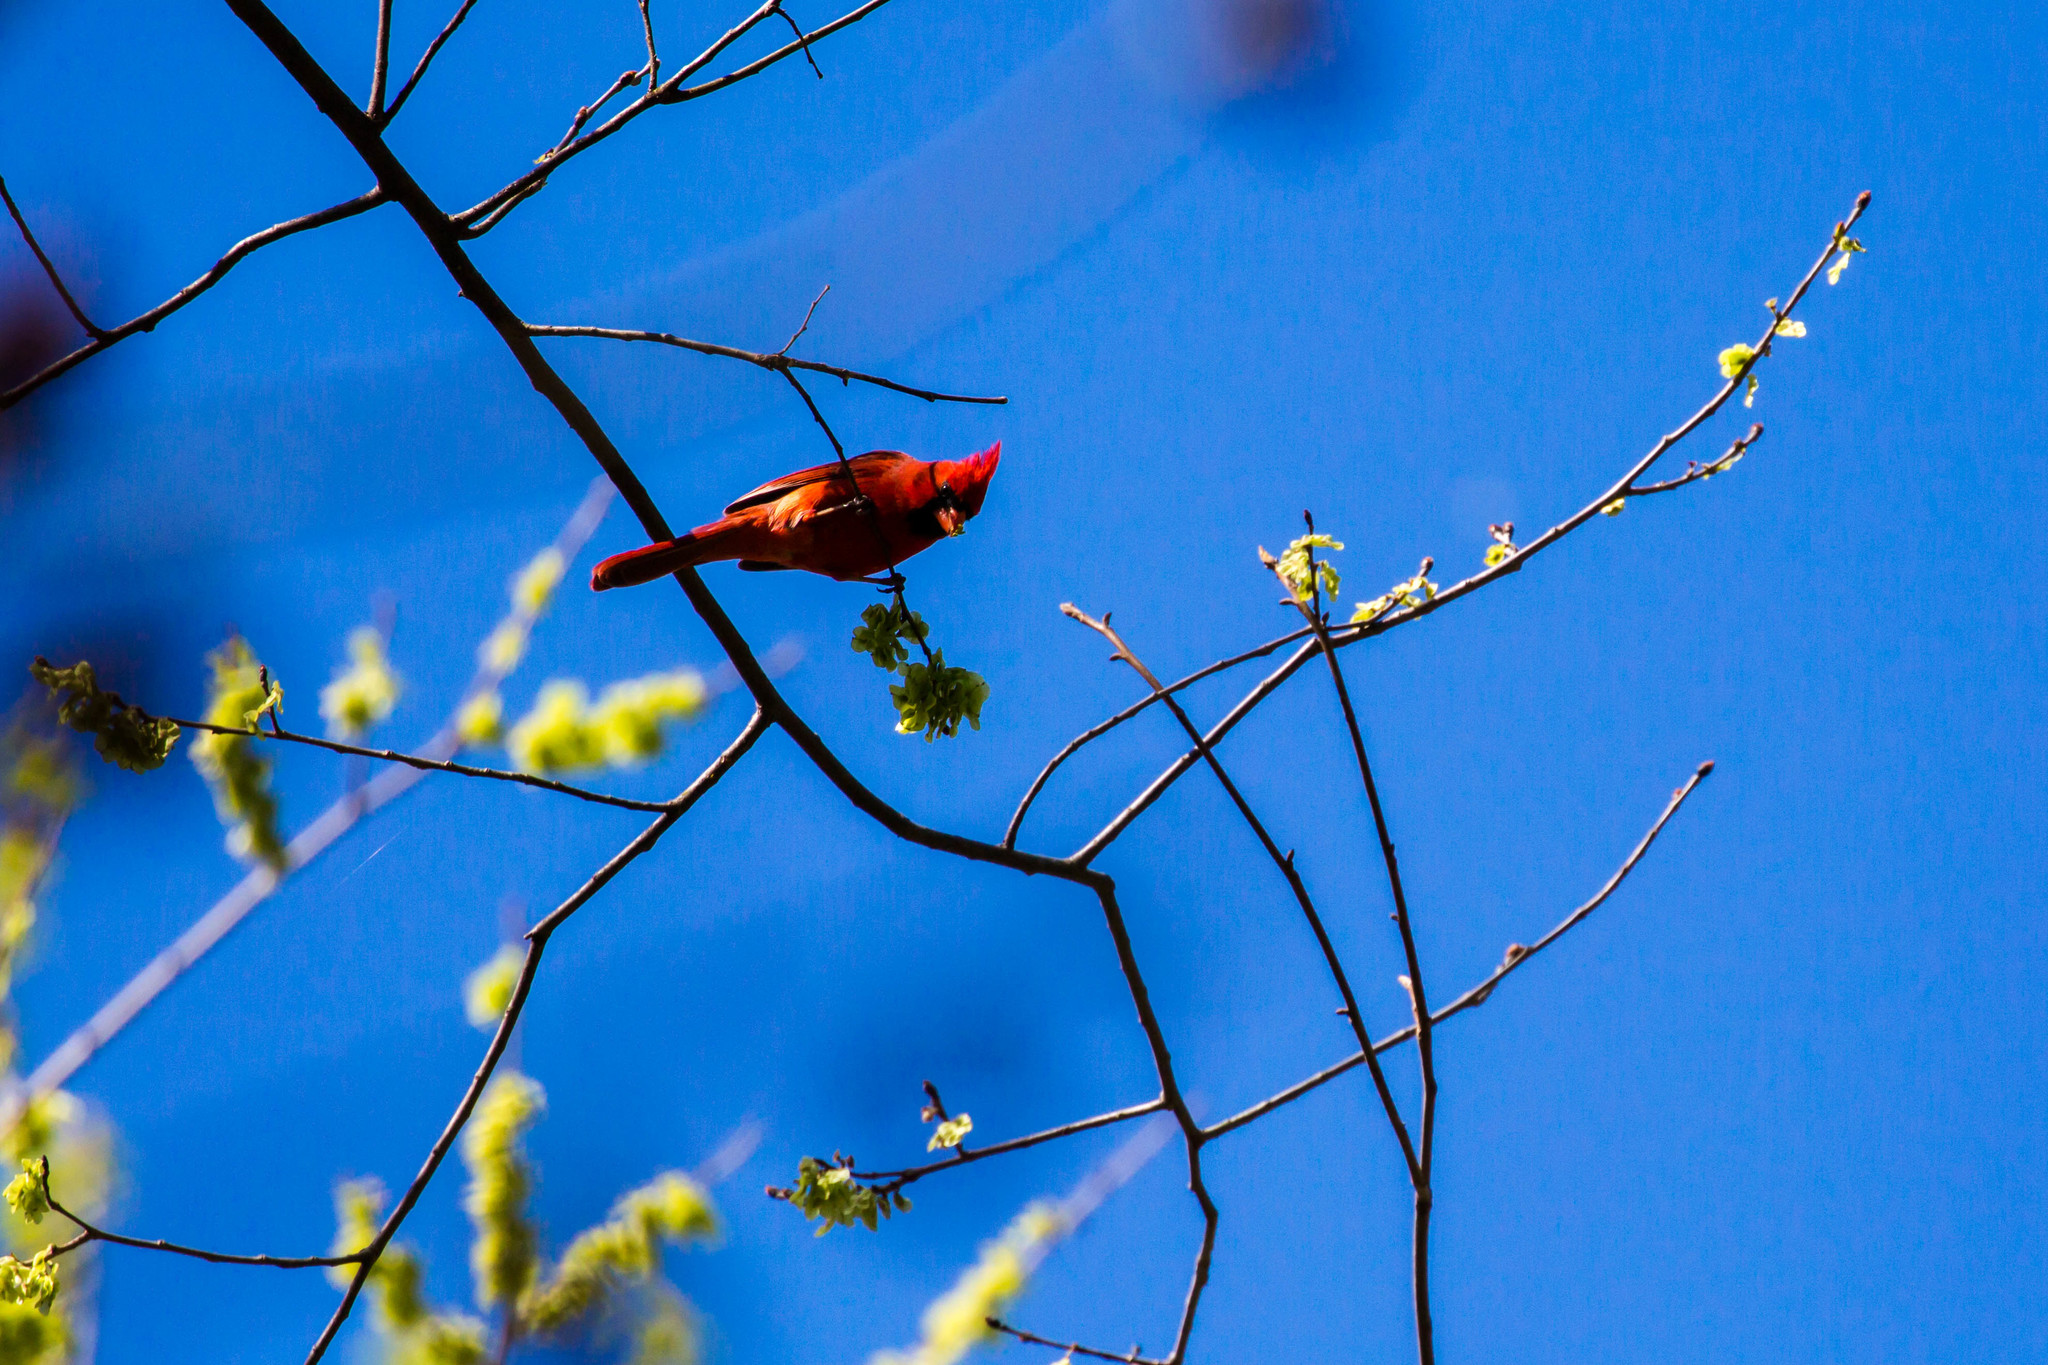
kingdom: Animalia
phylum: Chordata
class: Aves
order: Passeriformes
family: Cardinalidae
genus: Cardinalis
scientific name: Cardinalis cardinalis
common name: Northern cardinal
